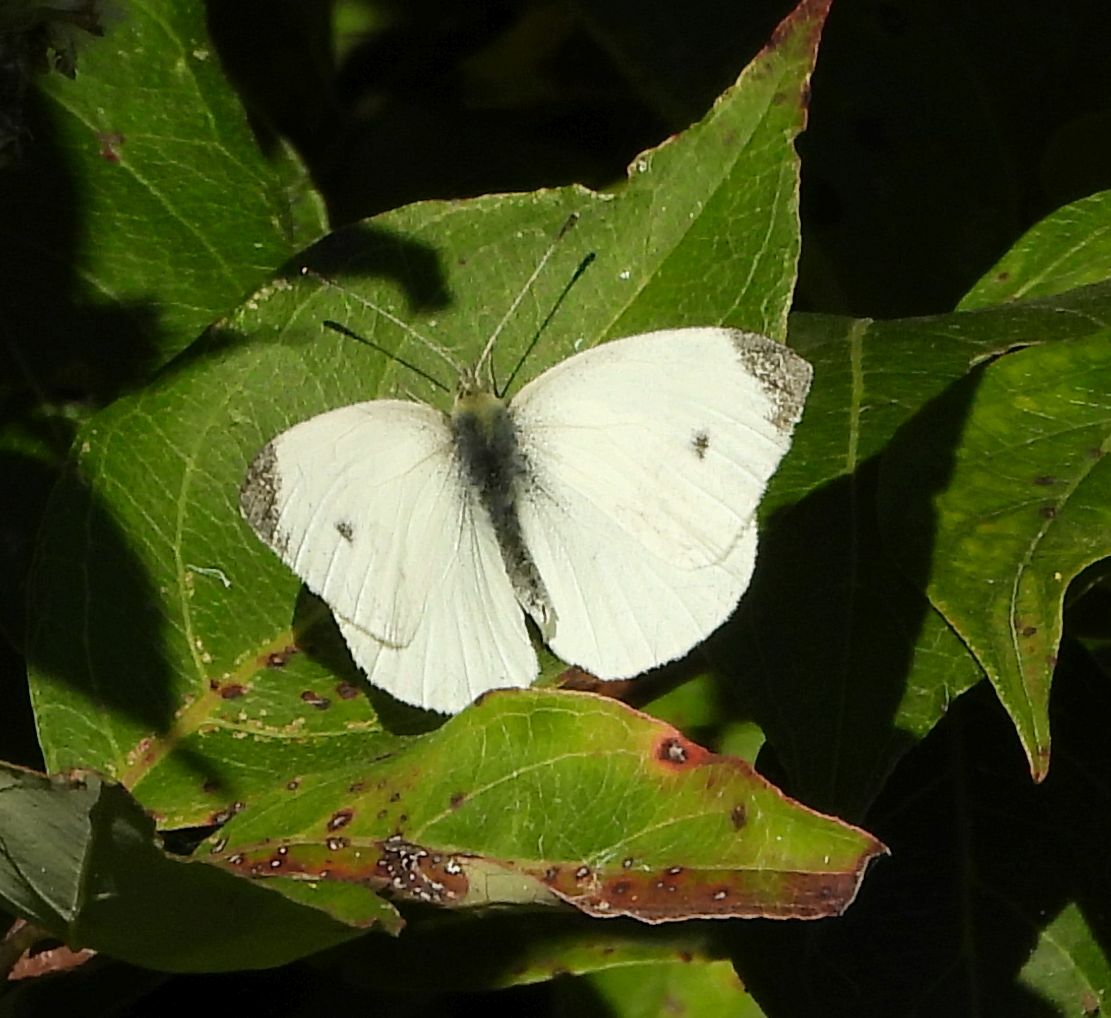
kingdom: Animalia
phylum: Arthropoda
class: Insecta
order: Lepidoptera
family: Pieridae
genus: Pieris
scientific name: Pieris rapae
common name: Small white
